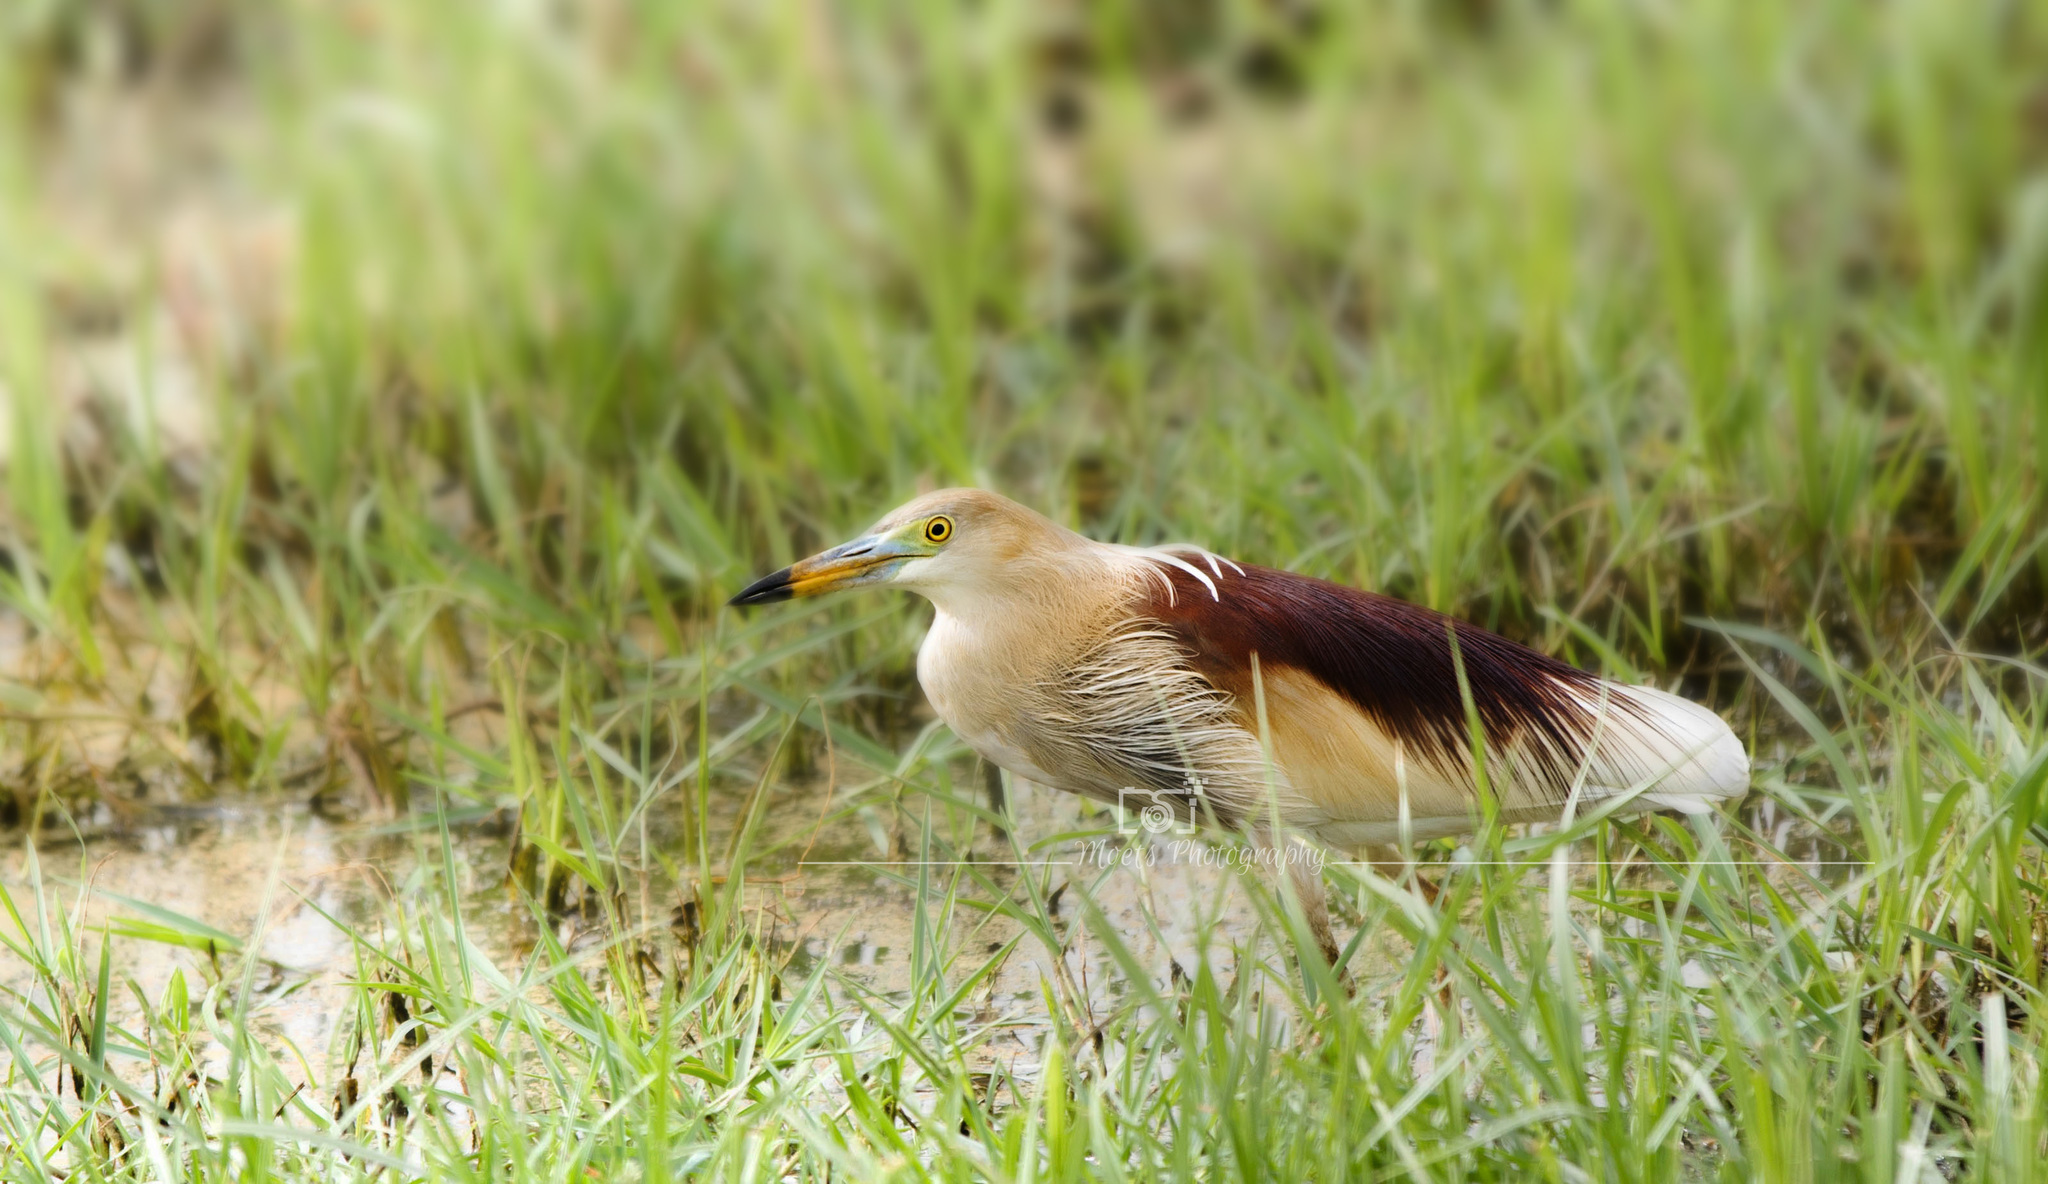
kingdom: Animalia
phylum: Chordata
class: Aves
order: Pelecaniformes
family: Ardeidae
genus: Ardeola
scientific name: Ardeola grayii
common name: Indian pond heron
